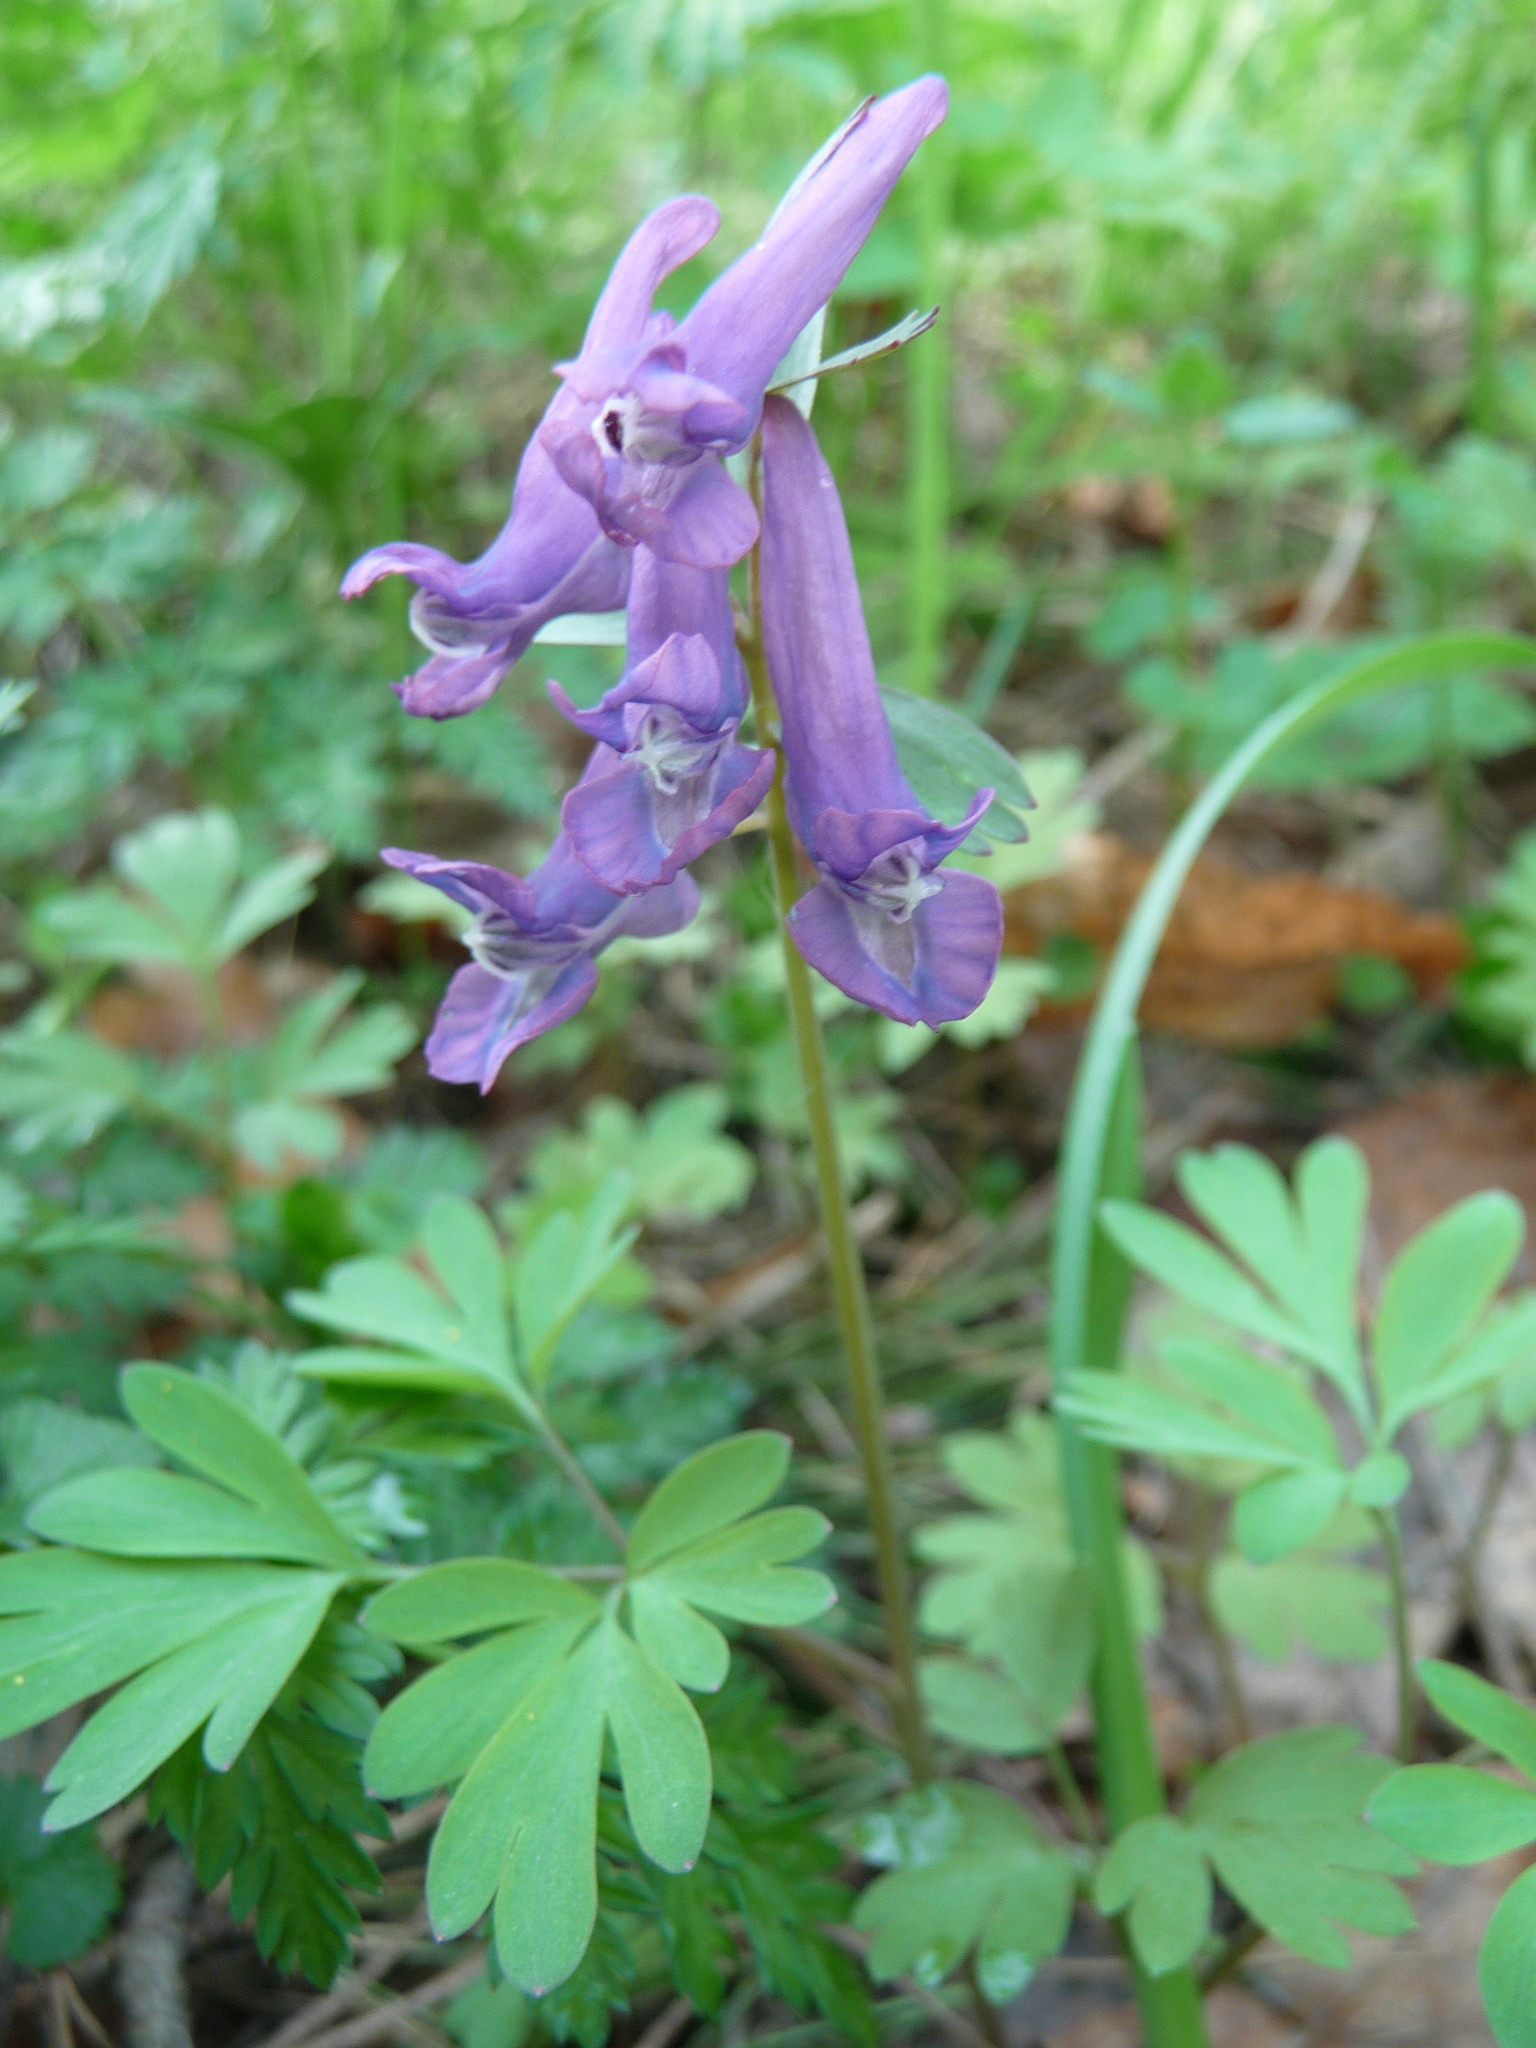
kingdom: Plantae
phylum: Tracheophyta
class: Magnoliopsida
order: Ranunculales
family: Papaveraceae
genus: Corydalis
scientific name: Corydalis solida
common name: Bird-in-a-bush
